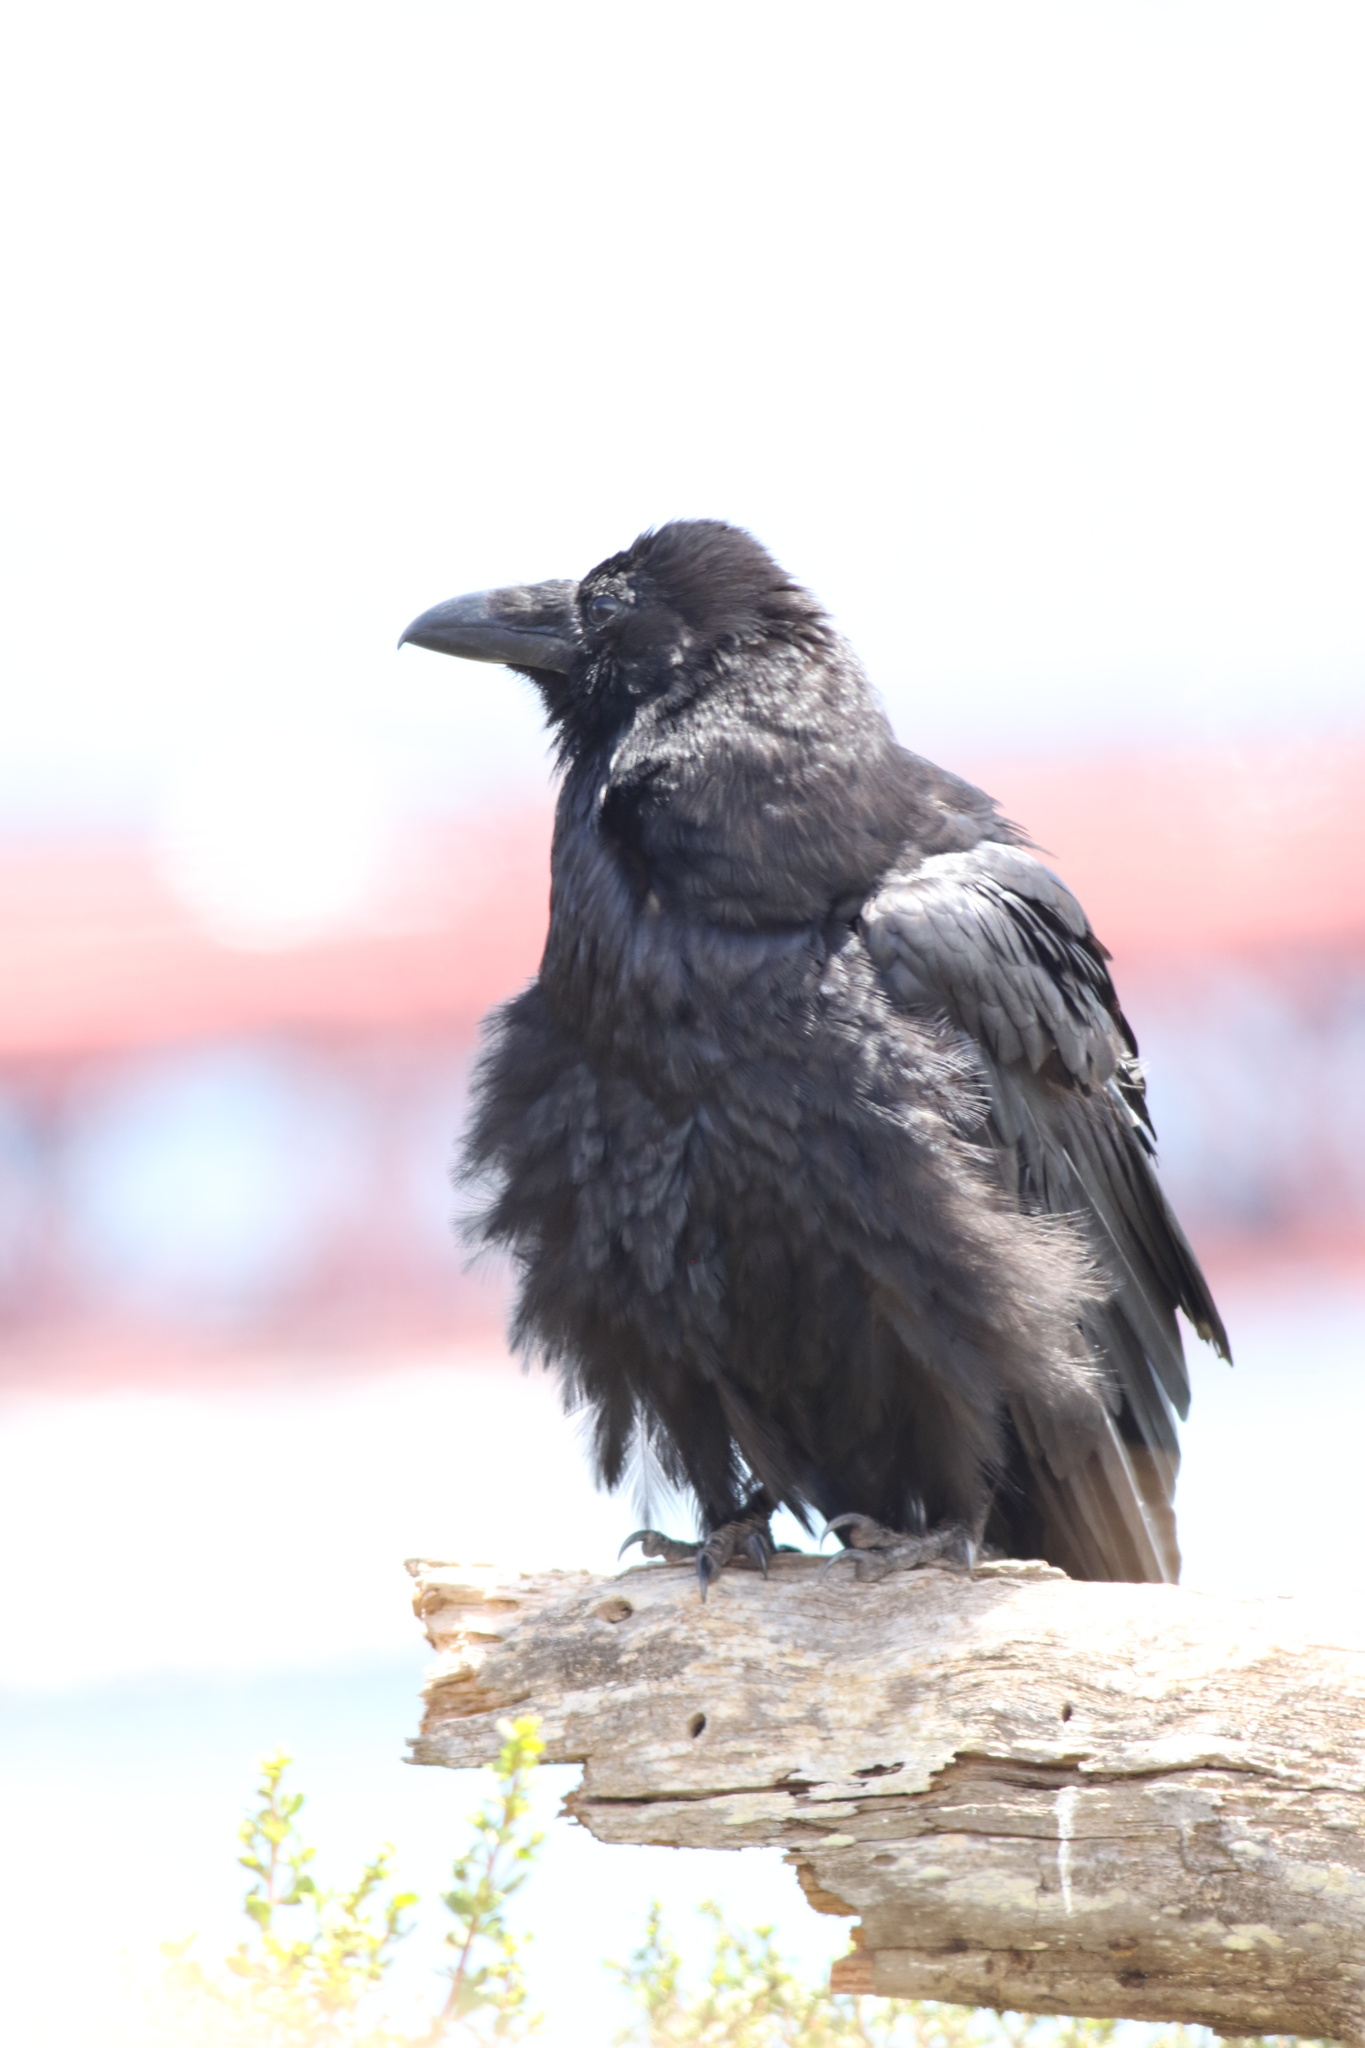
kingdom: Animalia
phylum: Chordata
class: Aves
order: Passeriformes
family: Corvidae
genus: Corvus
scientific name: Corvus corax
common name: Common raven
